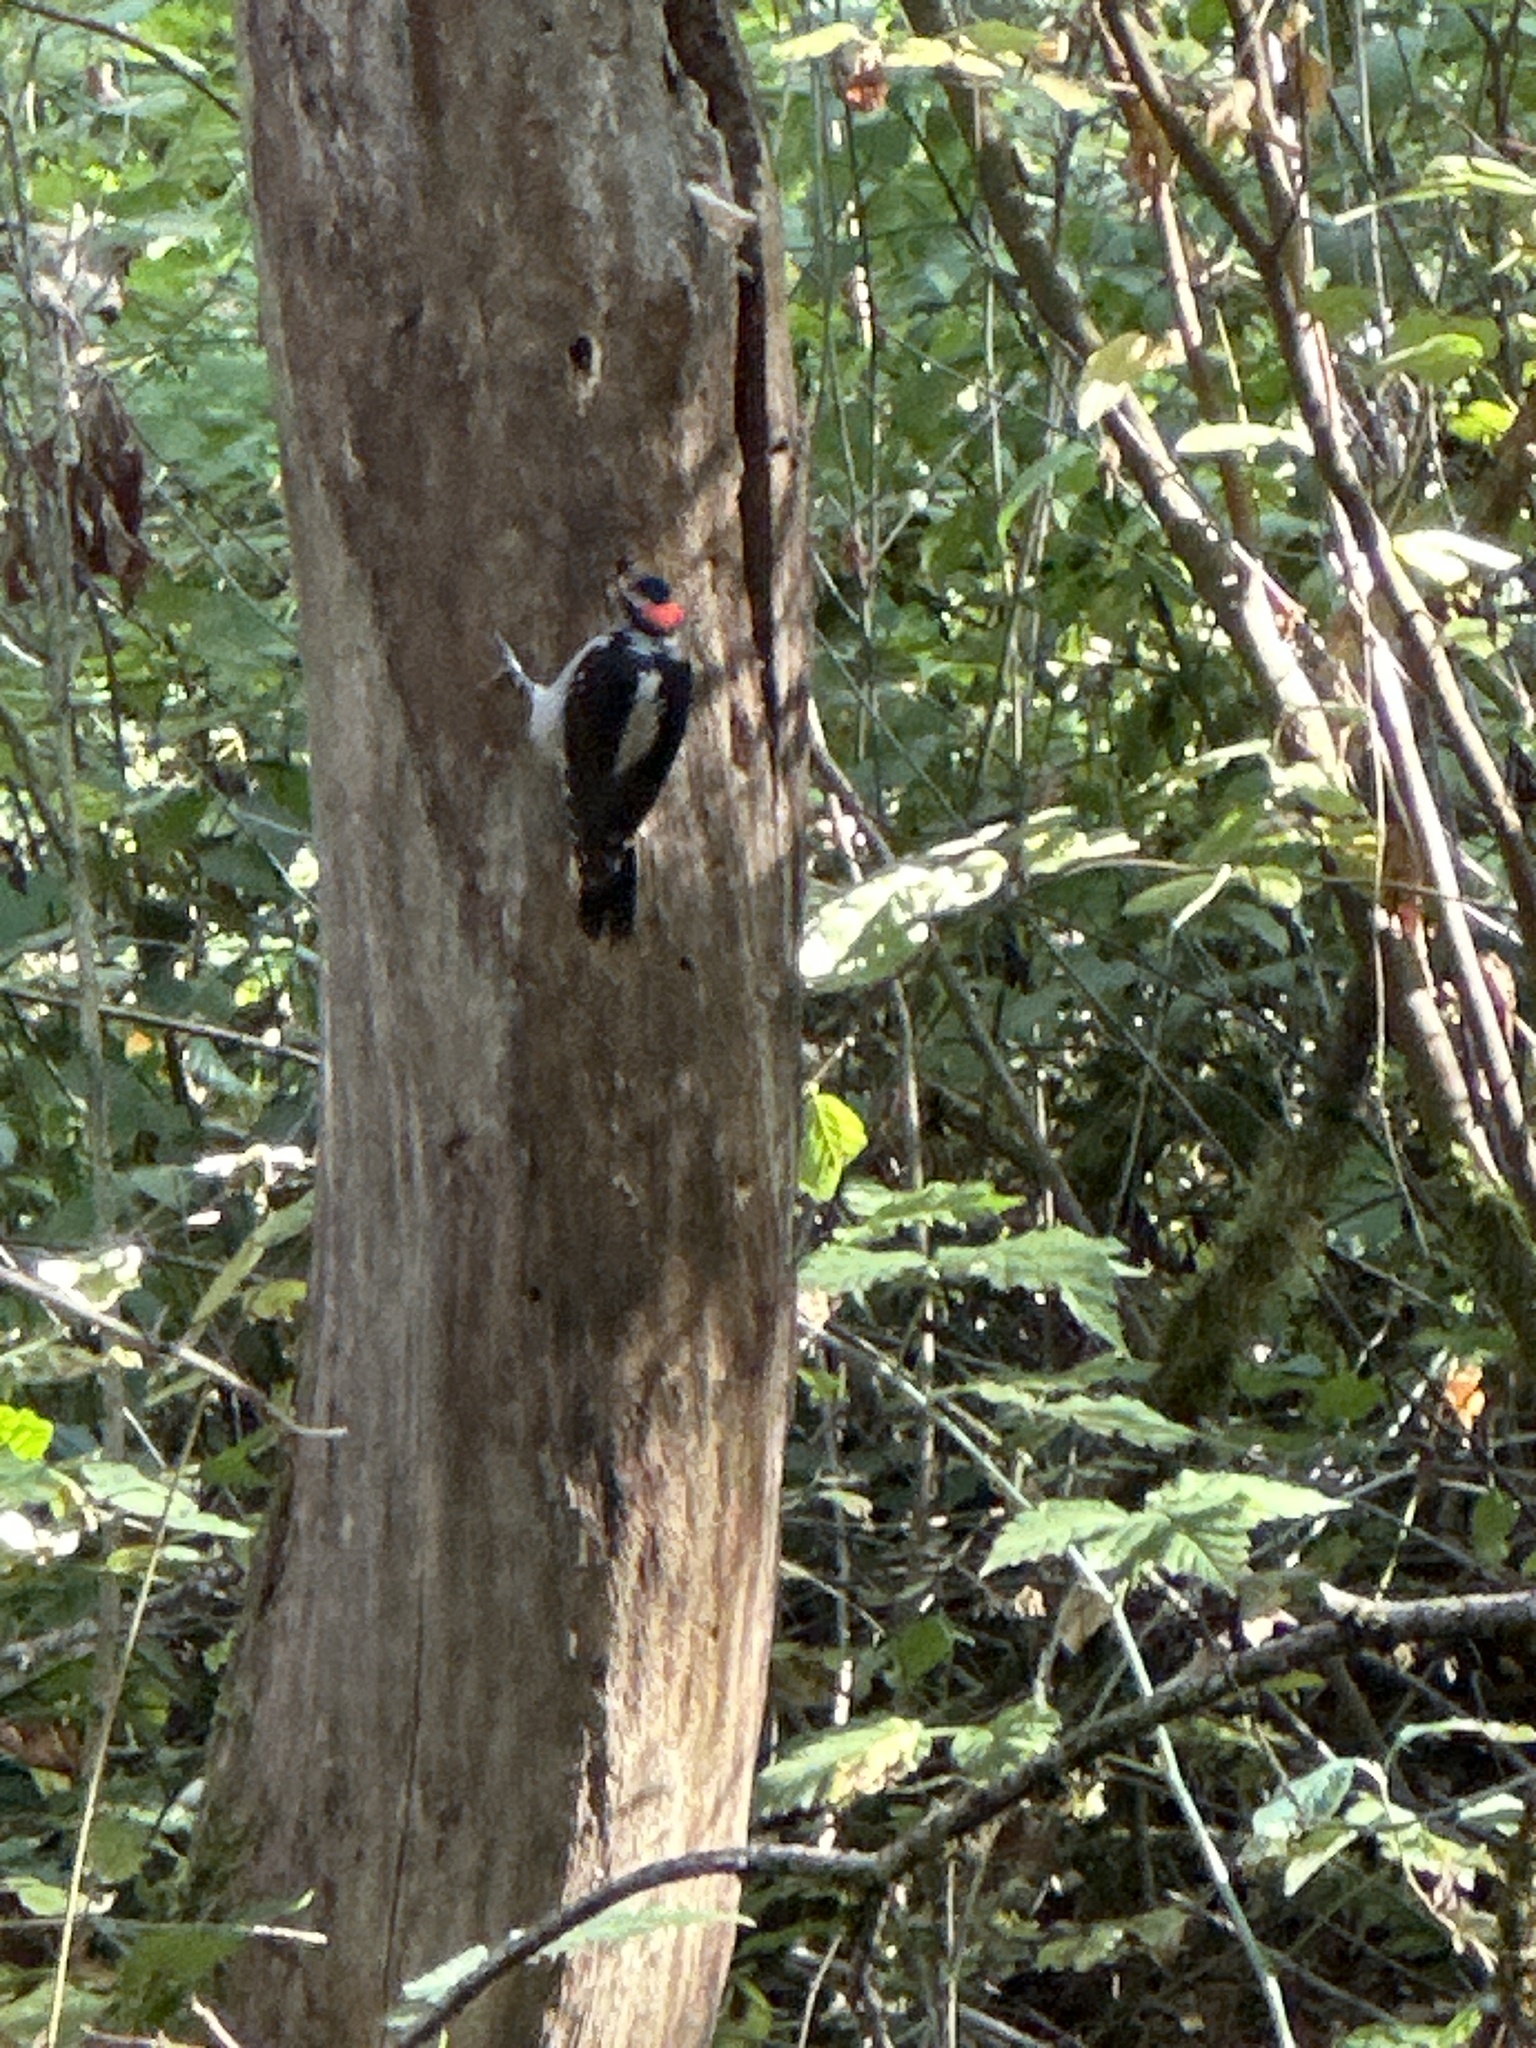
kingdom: Animalia
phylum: Chordata
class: Aves
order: Piciformes
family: Picidae
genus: Leuconotopicus
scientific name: Leuconotopicus villosus
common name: Hairy woodpecker
